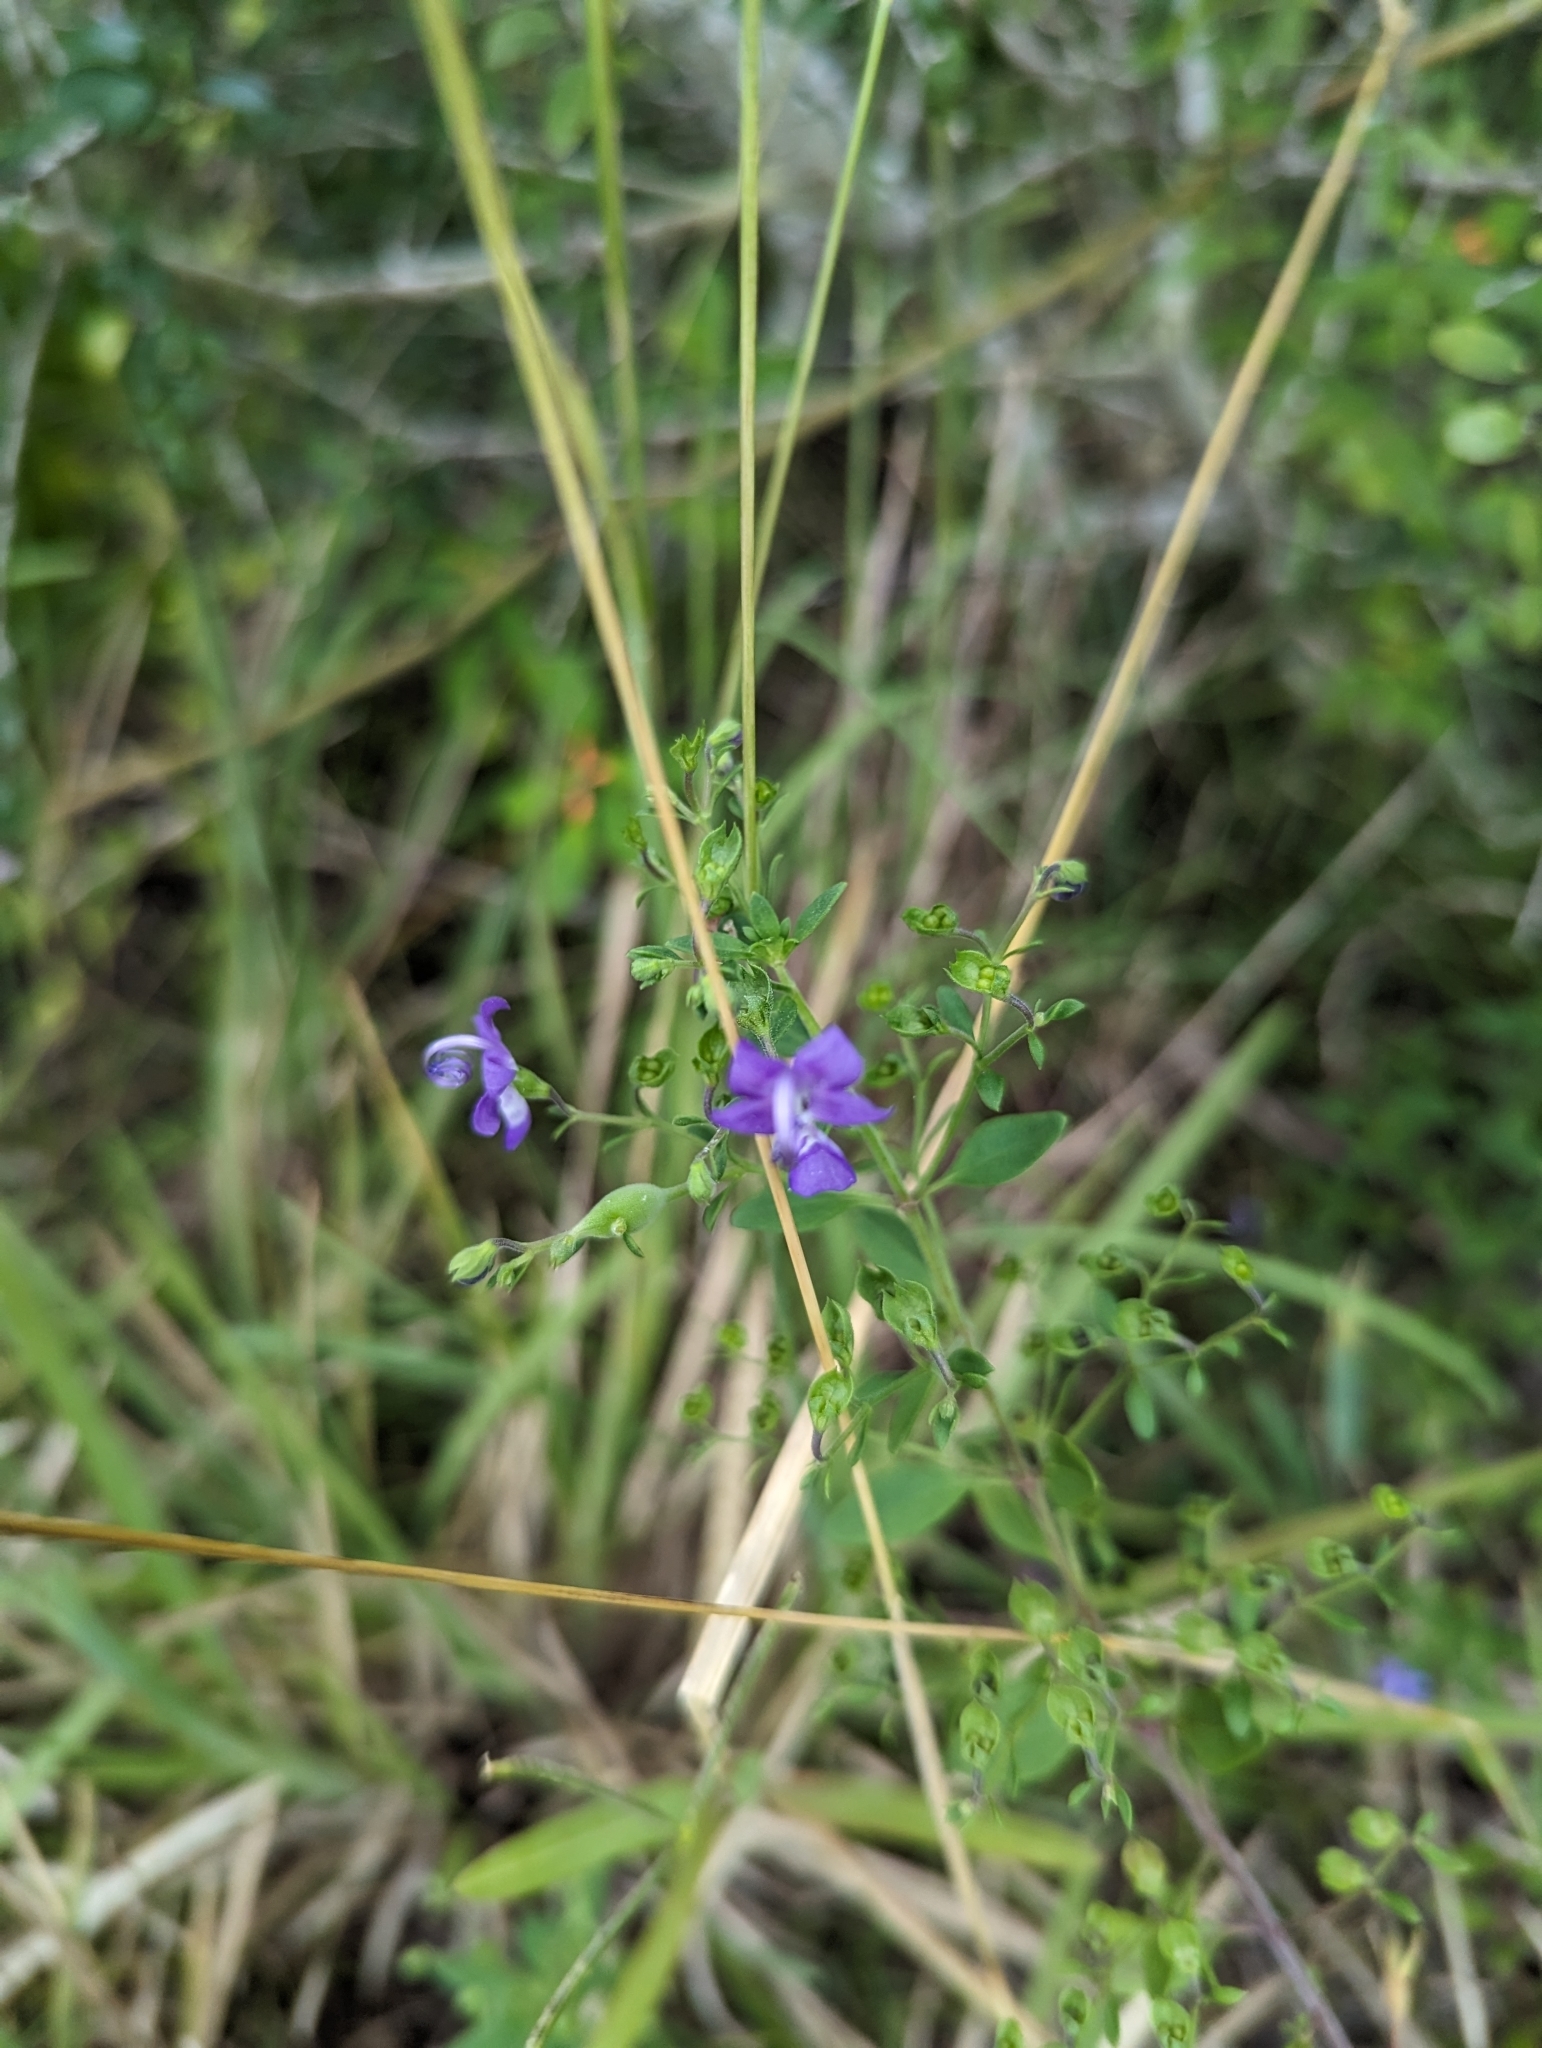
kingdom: Plantae
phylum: Tracheophyta
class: Magnoliopsida
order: Lamiales
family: Lamiaceae
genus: Trichostema
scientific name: Trichostema
